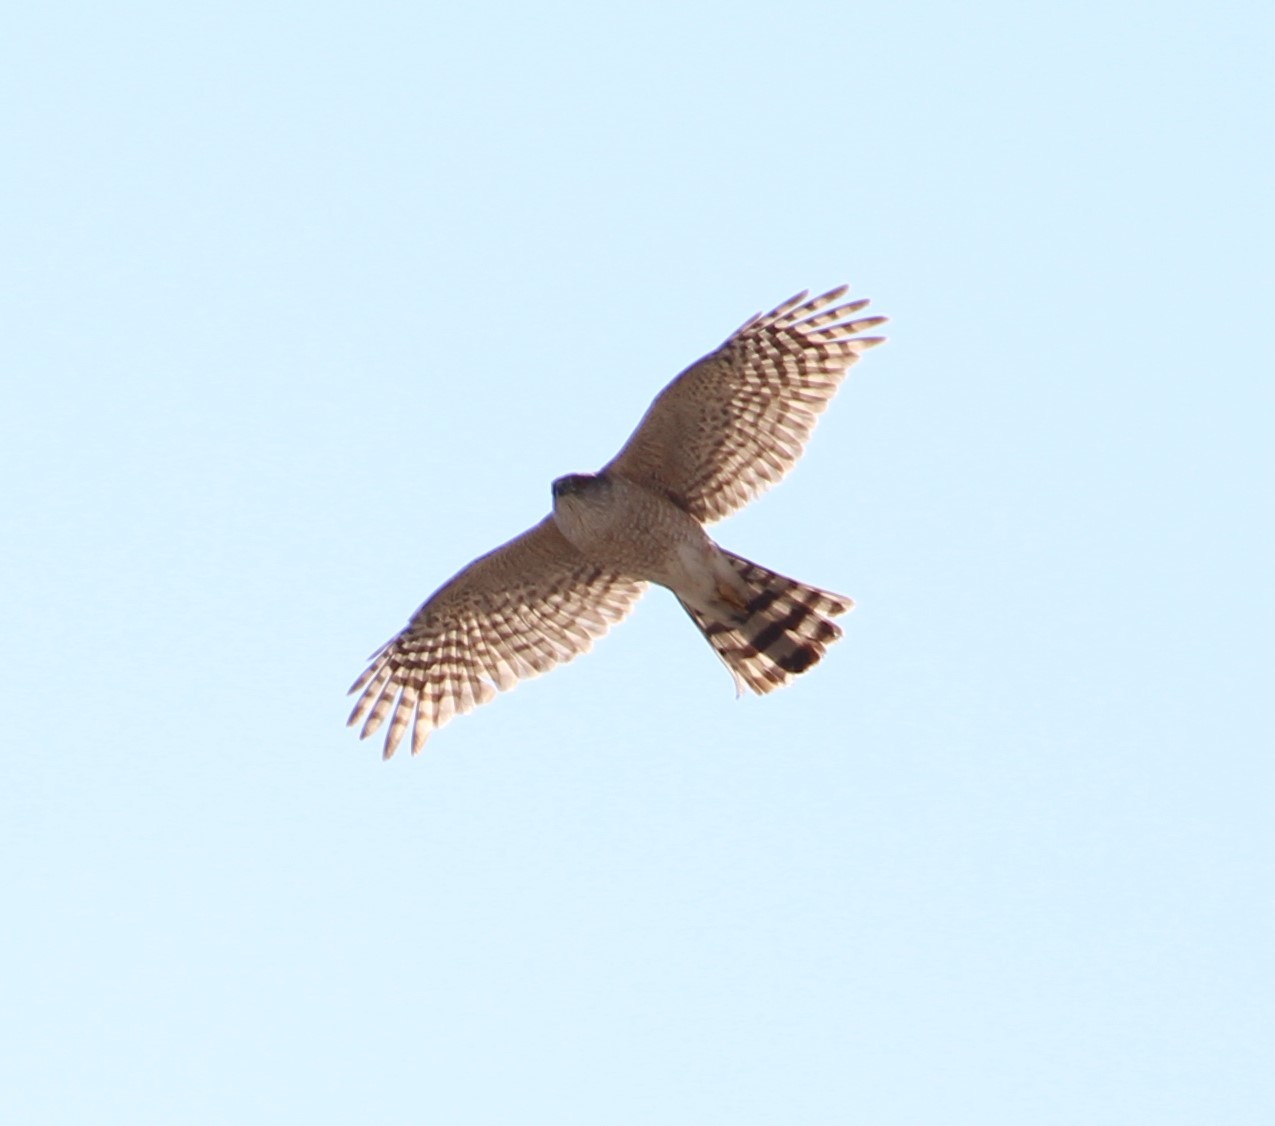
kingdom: Animalia
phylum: Chordata
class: Aves
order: Accipitriformes
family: Accipitridae
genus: Accipiter
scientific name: Accipiter striatus
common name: Sharp-shinned hawk
